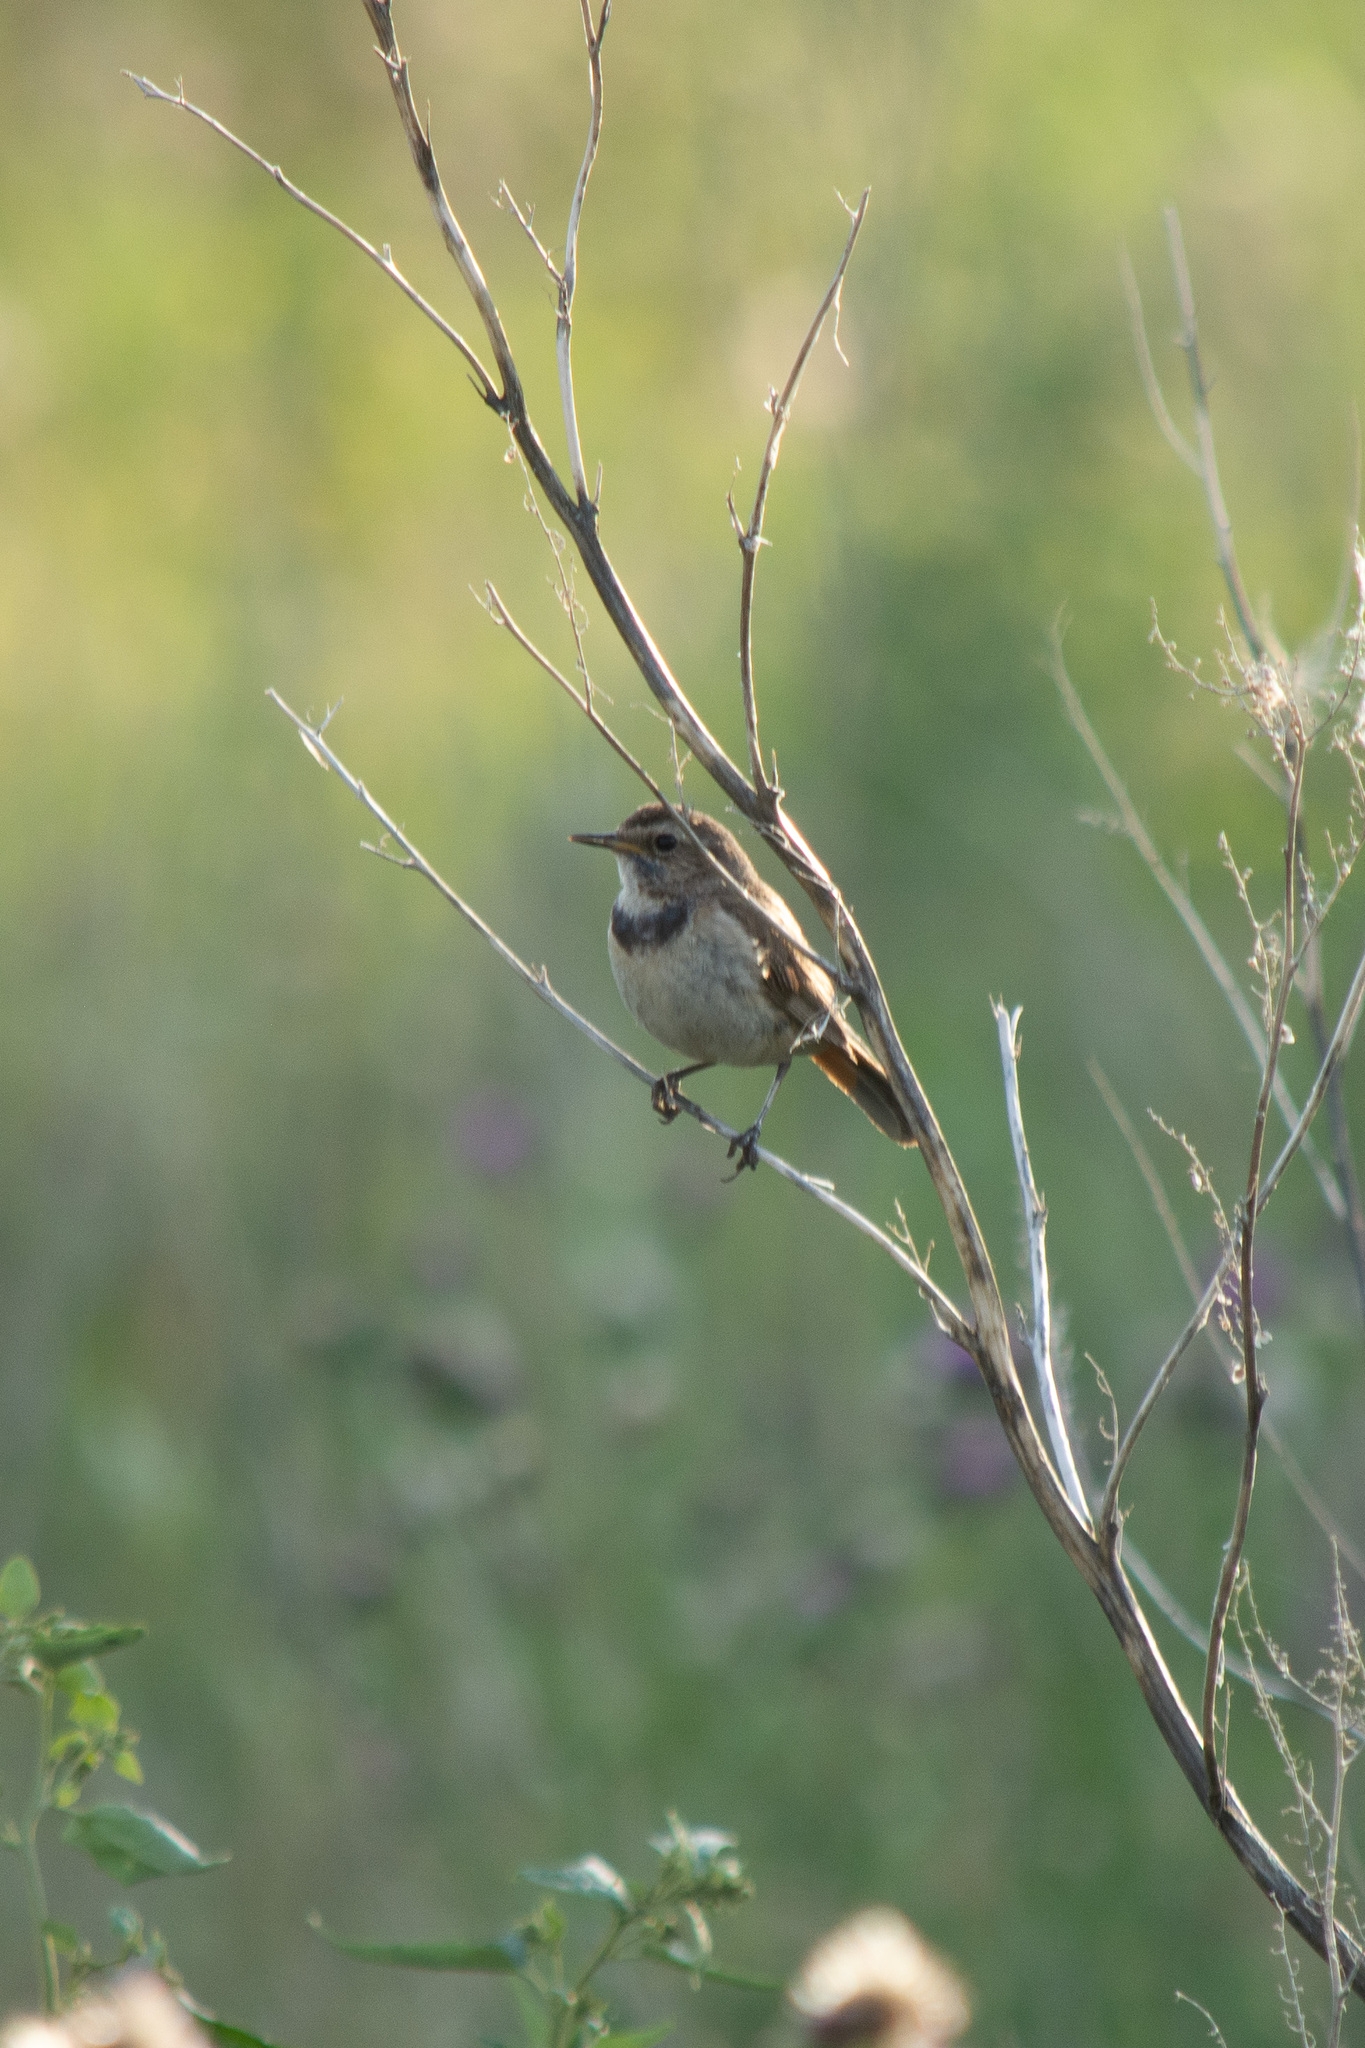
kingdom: Animalia
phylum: Chordata
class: Aves
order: Passeriformes
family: Muscicapidae
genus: Luscinia
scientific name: Luscinia svecica
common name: Bluethroat
